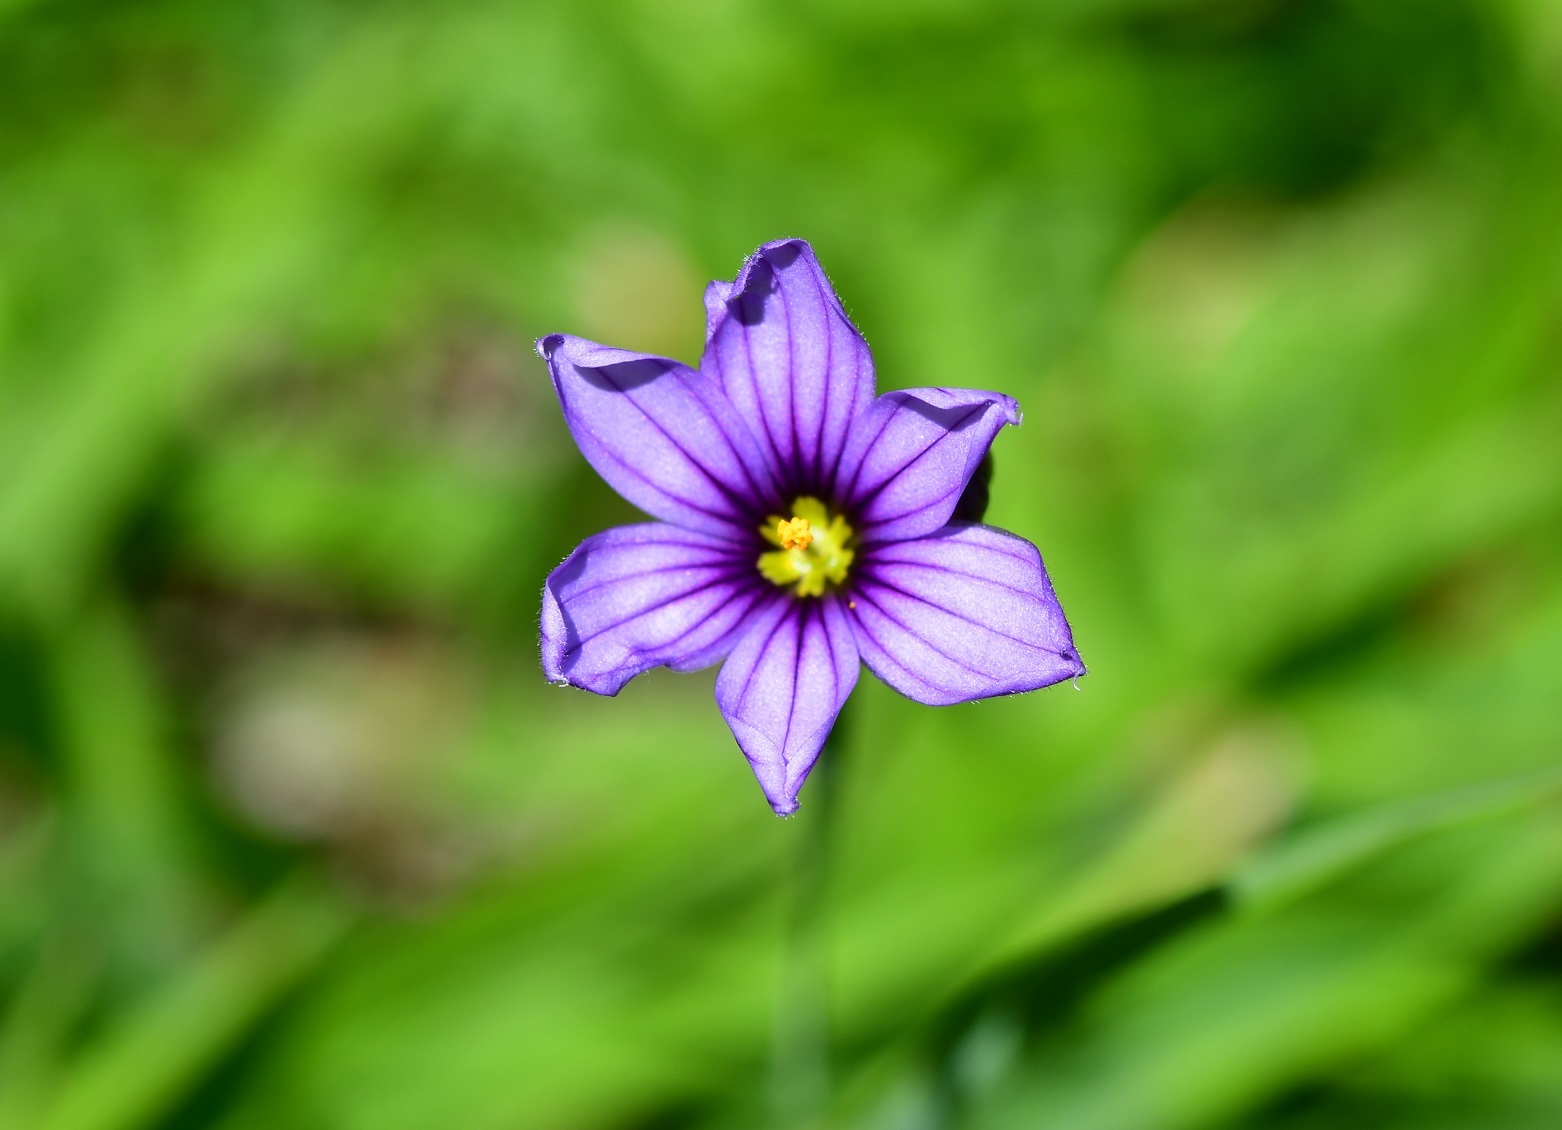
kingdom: Plantae
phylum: Tracheophyta
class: Liliopsida
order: Asparagales
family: Iridaceae
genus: Sisyrinchium
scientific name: Sisyrinchium scabrum
